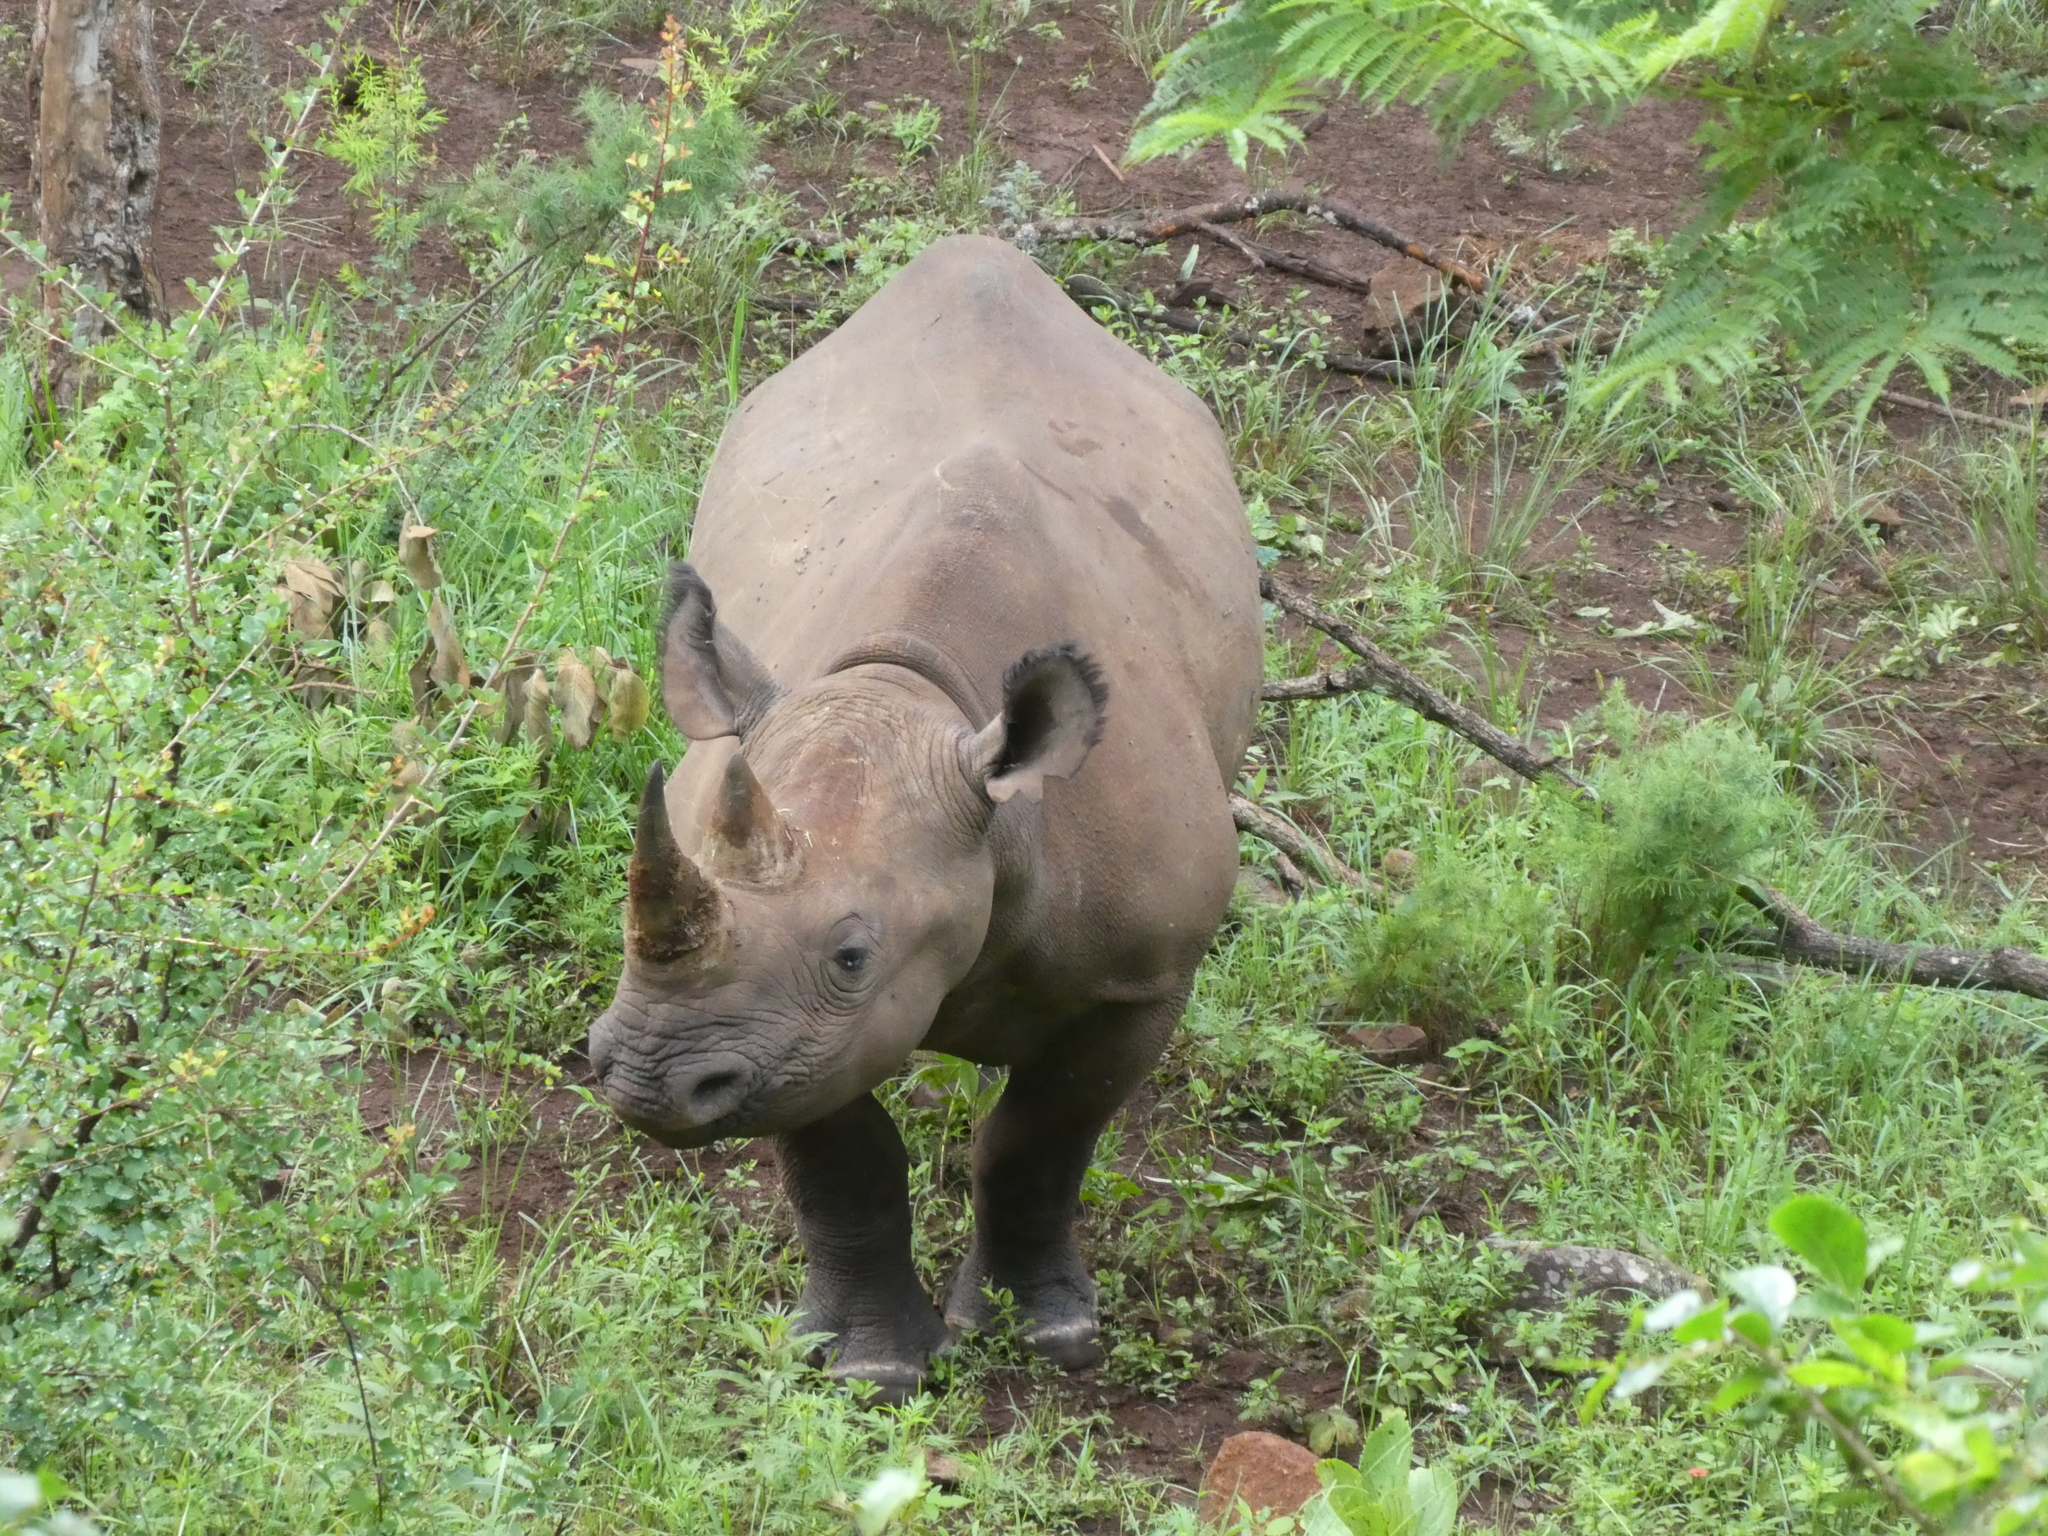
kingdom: Animalia
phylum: Chordata
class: Mammalia
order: Perissodactyla
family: Rhinocerotidae
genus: Diceros
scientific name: Diceros bicornis
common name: Black rhinoceros
